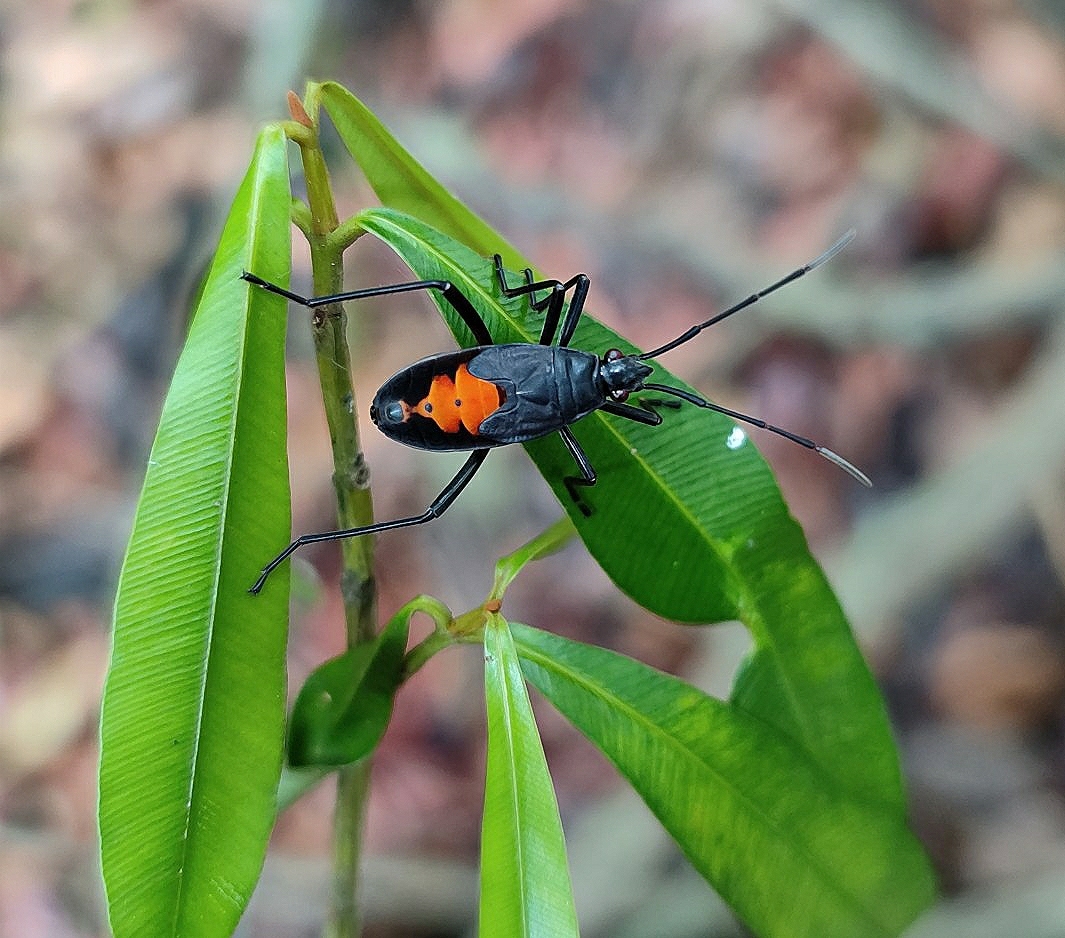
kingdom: Animalia
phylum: Arthropoda
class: Insecta
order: Hemiptera
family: Pyrrhocoridae
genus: Melamphaus
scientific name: Melamphaus
